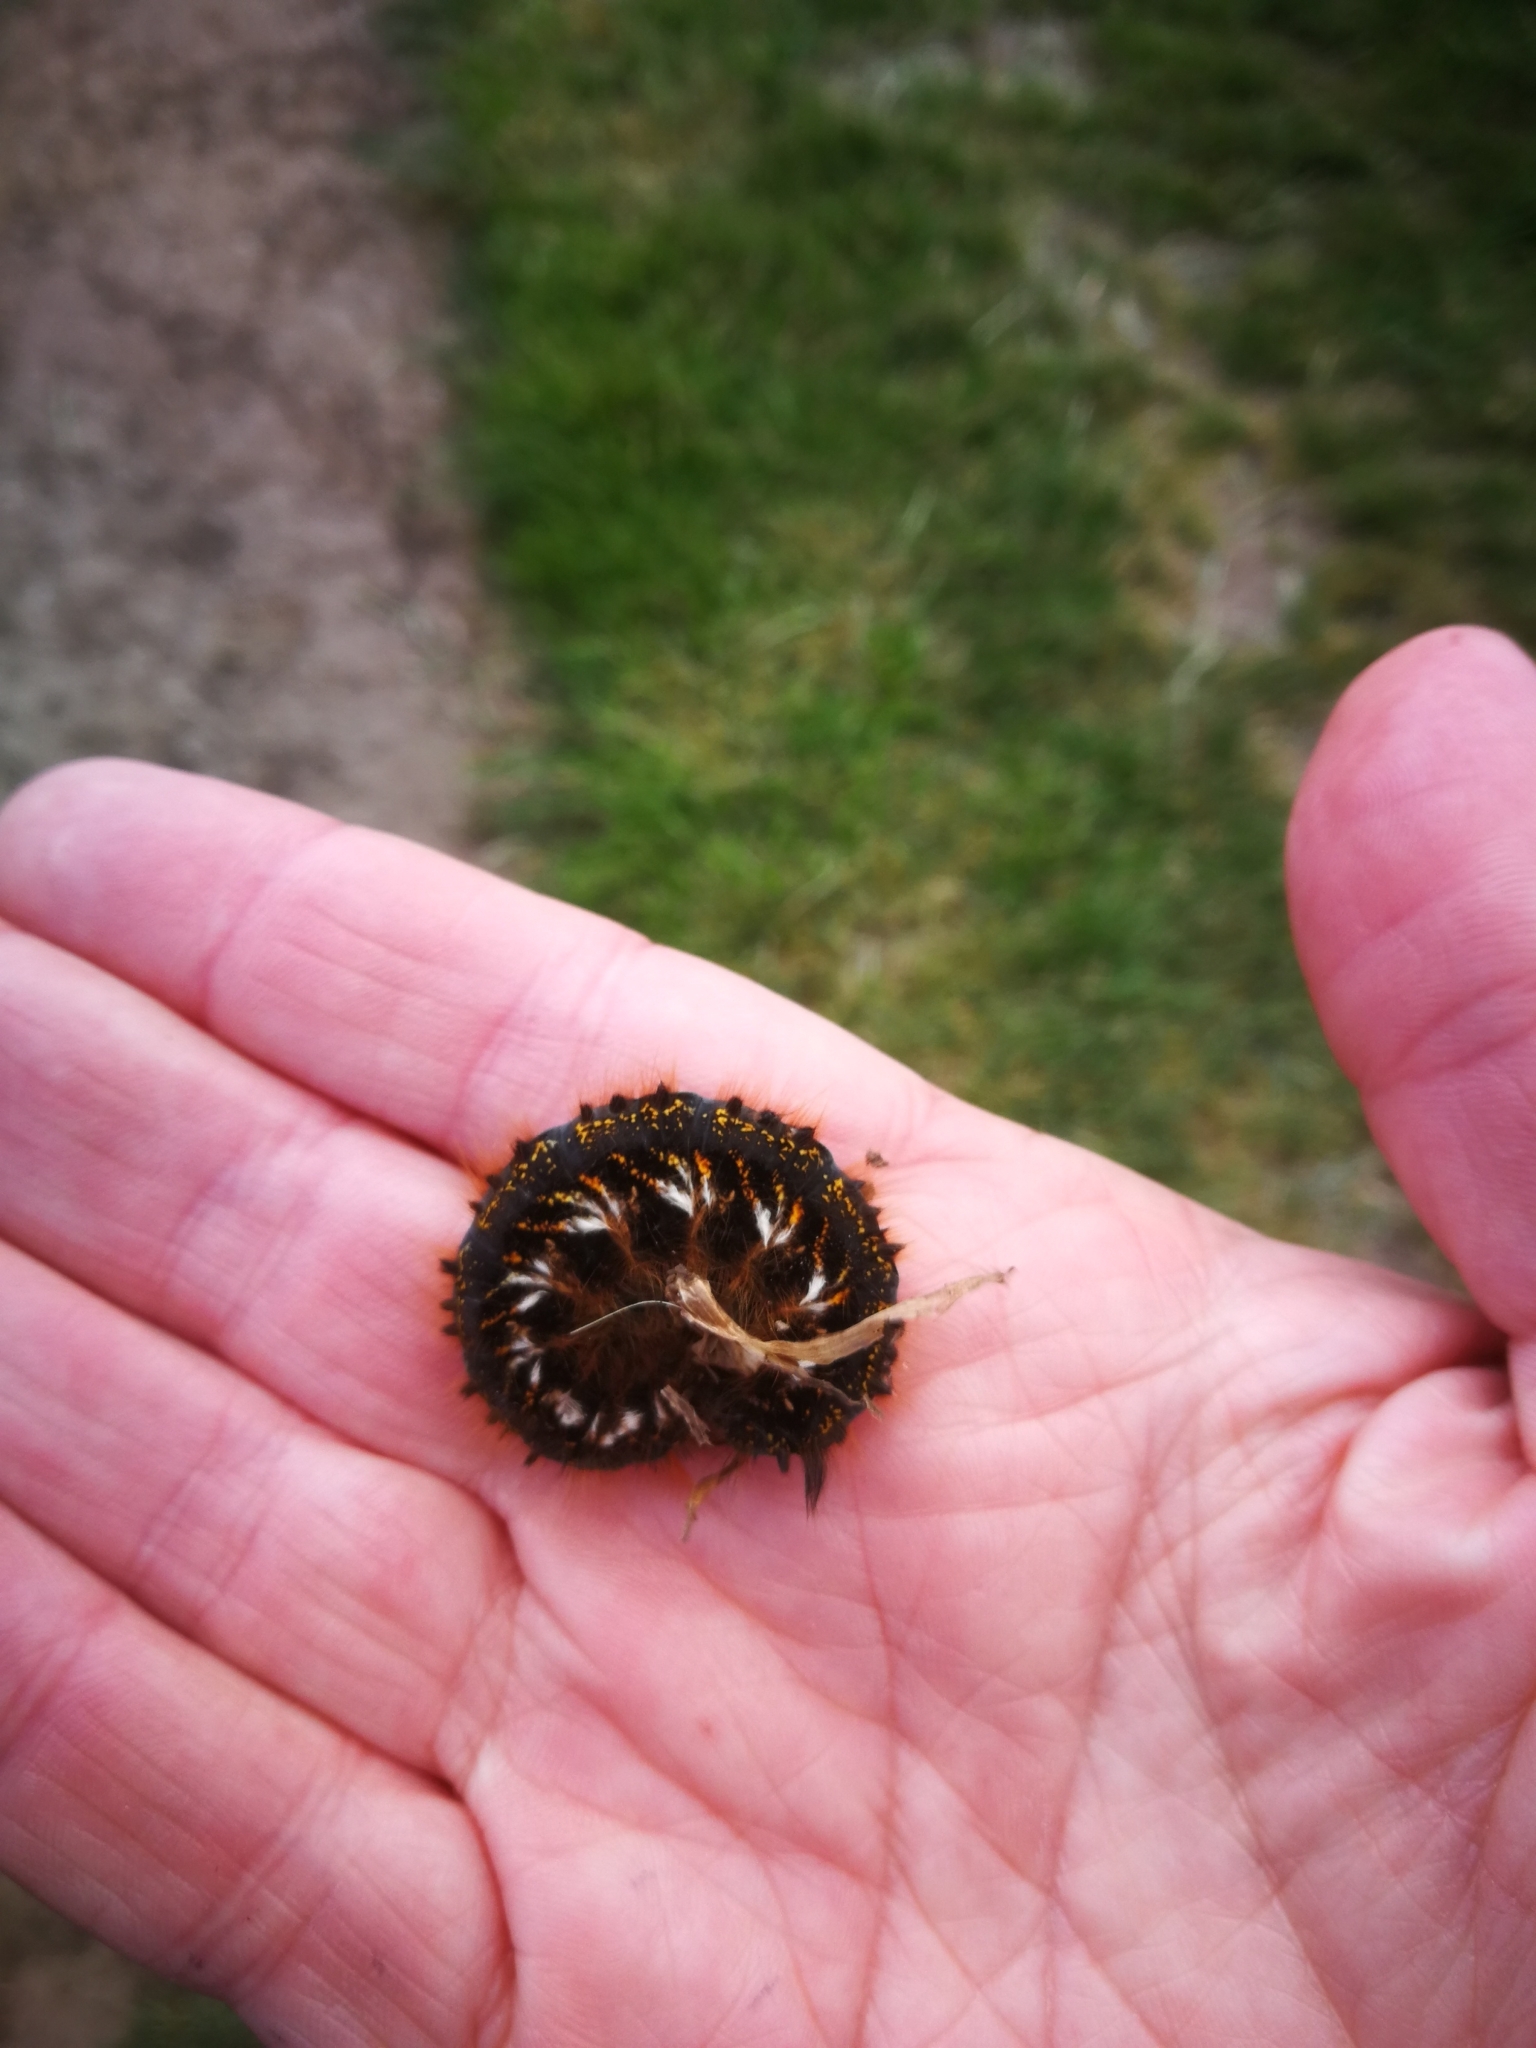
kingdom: Animalia
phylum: Arthropoda
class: Insecta
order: Lepidoptera
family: Lasiocampidae
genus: Euthrix
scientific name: Euthrix potatoria
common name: Drinker
